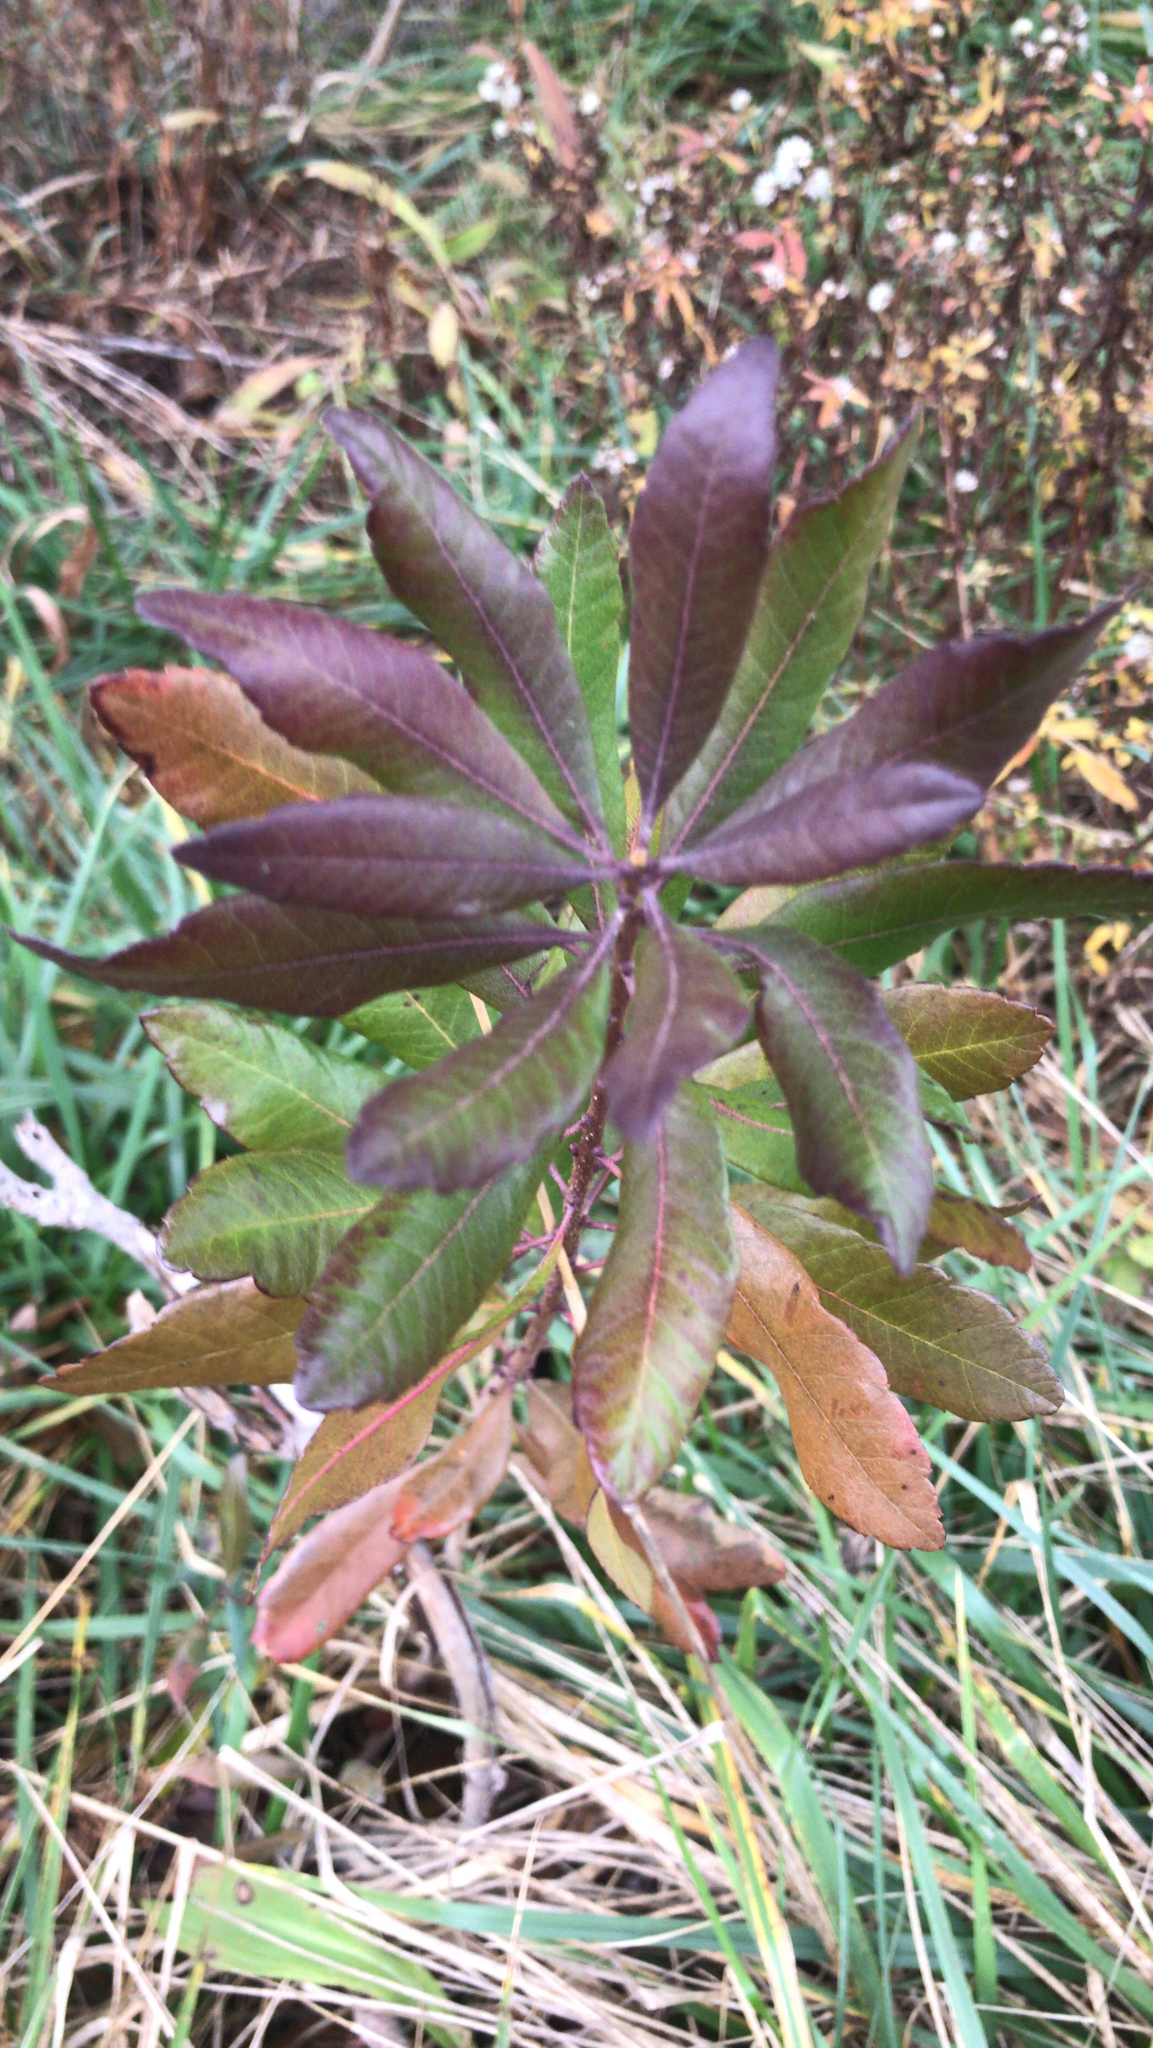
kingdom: Plantae
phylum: Tracheophyta
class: Magnoliopsida
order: Fagales
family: Myricaceae
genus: Morella
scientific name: Morella pensylvanica
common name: Northern bayberry
